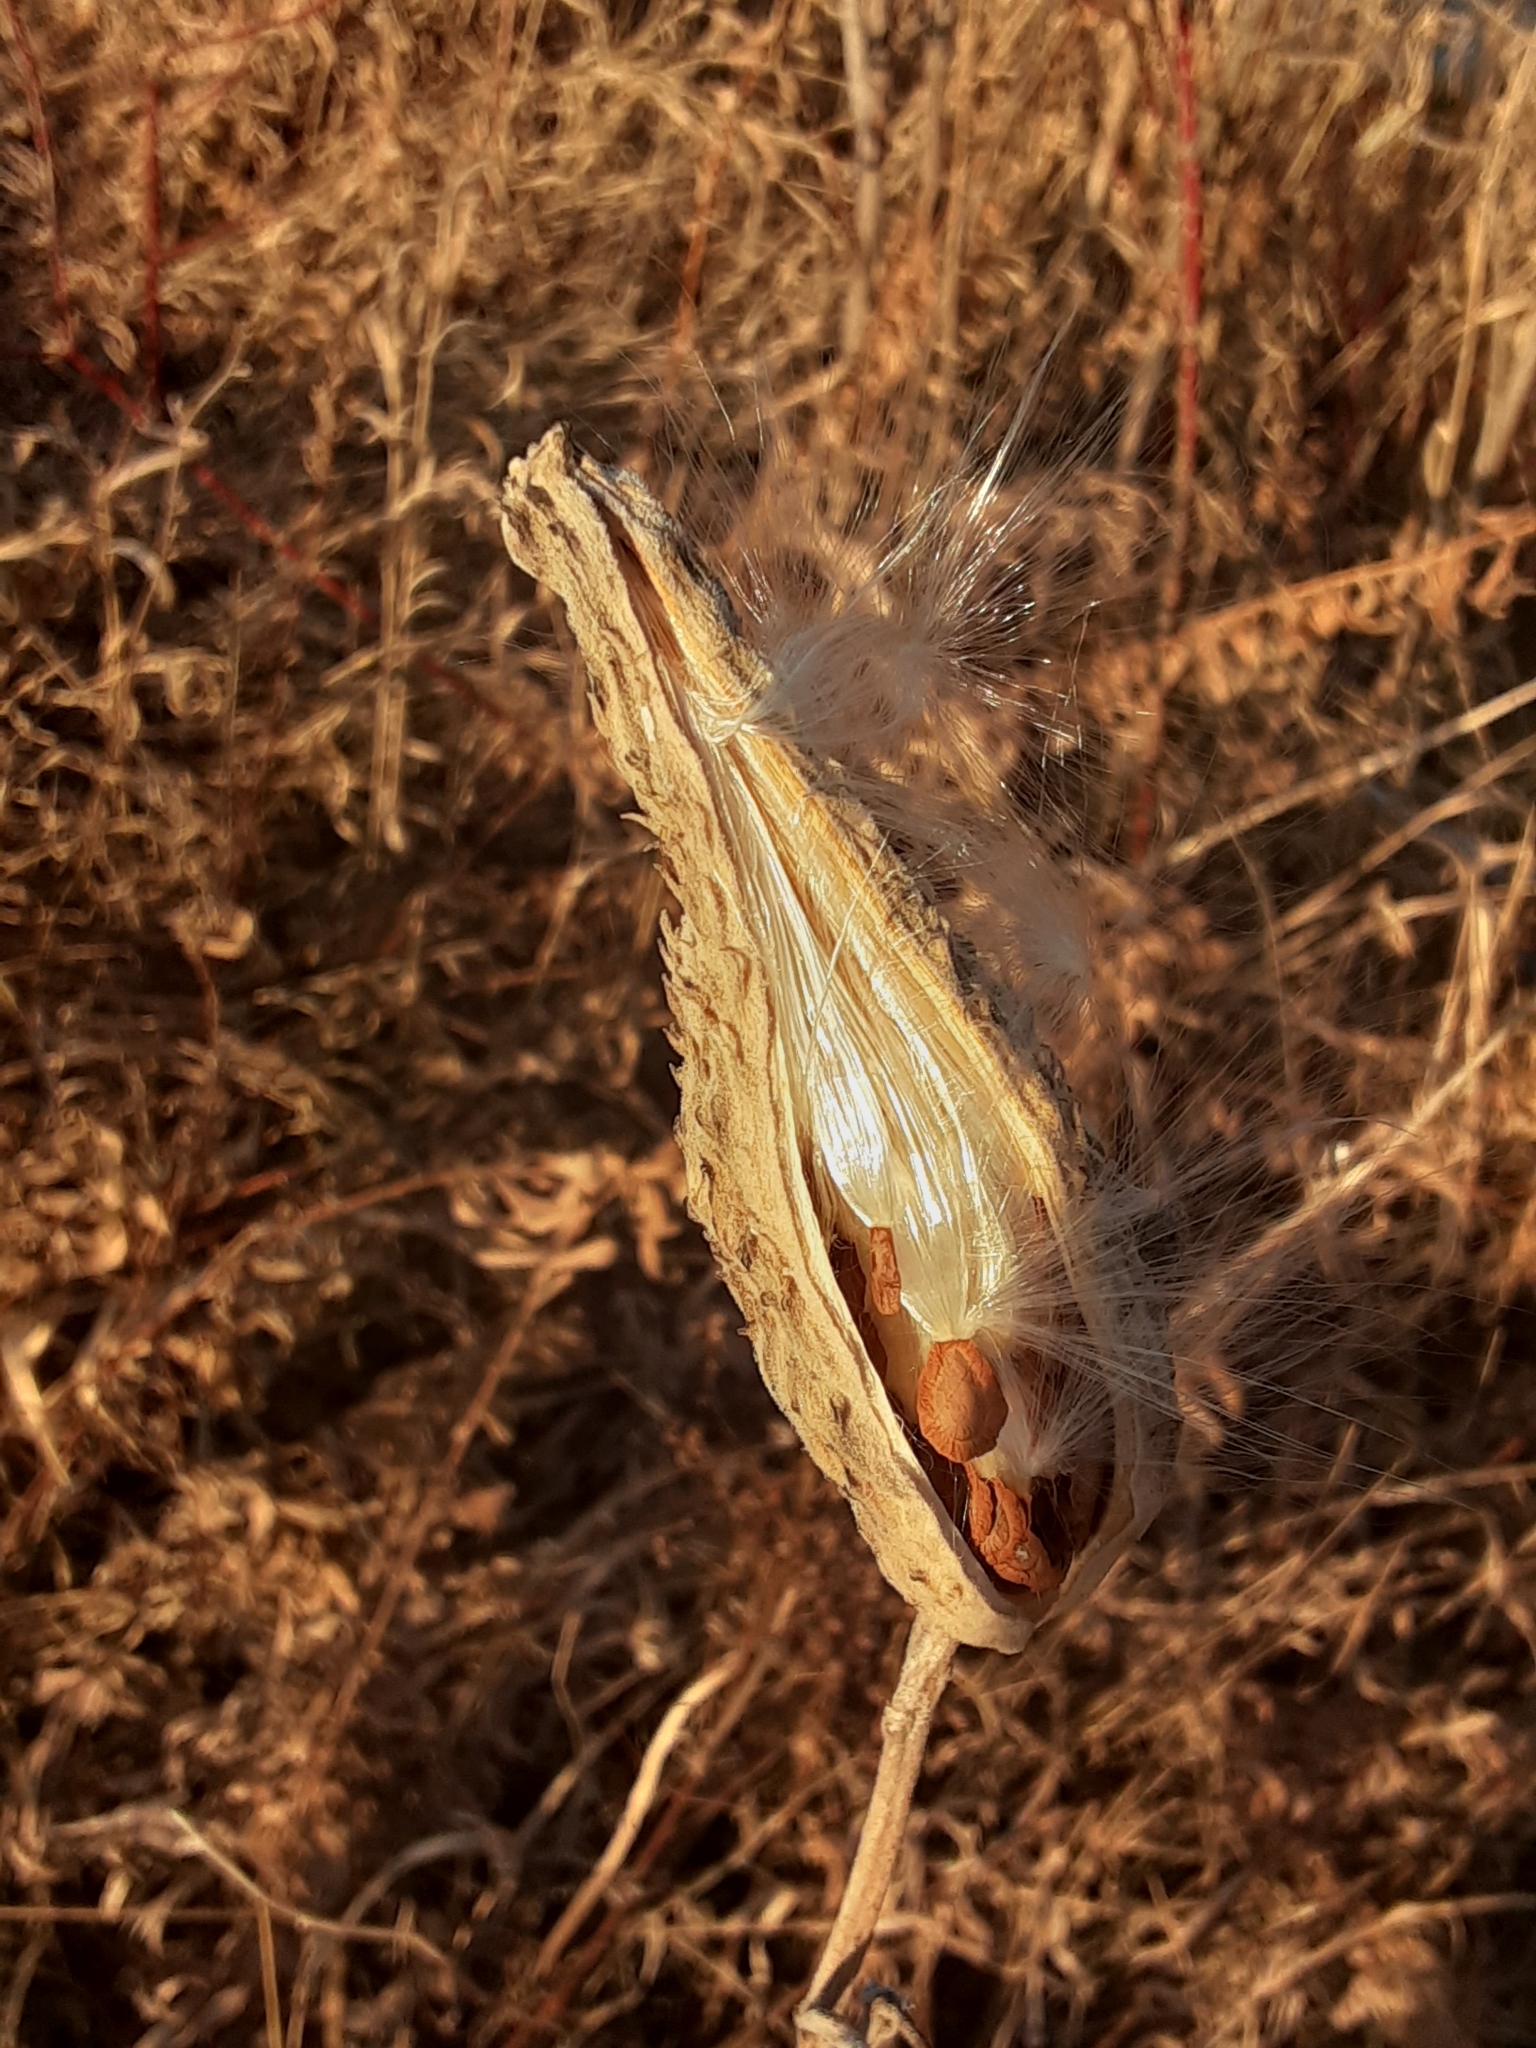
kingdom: Plantae
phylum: Tracheophyta
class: Magnoliopsida
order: Gentianales
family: Apocynaceae
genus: Asclepias
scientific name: Asclepias syriaca
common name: Common milkweed
